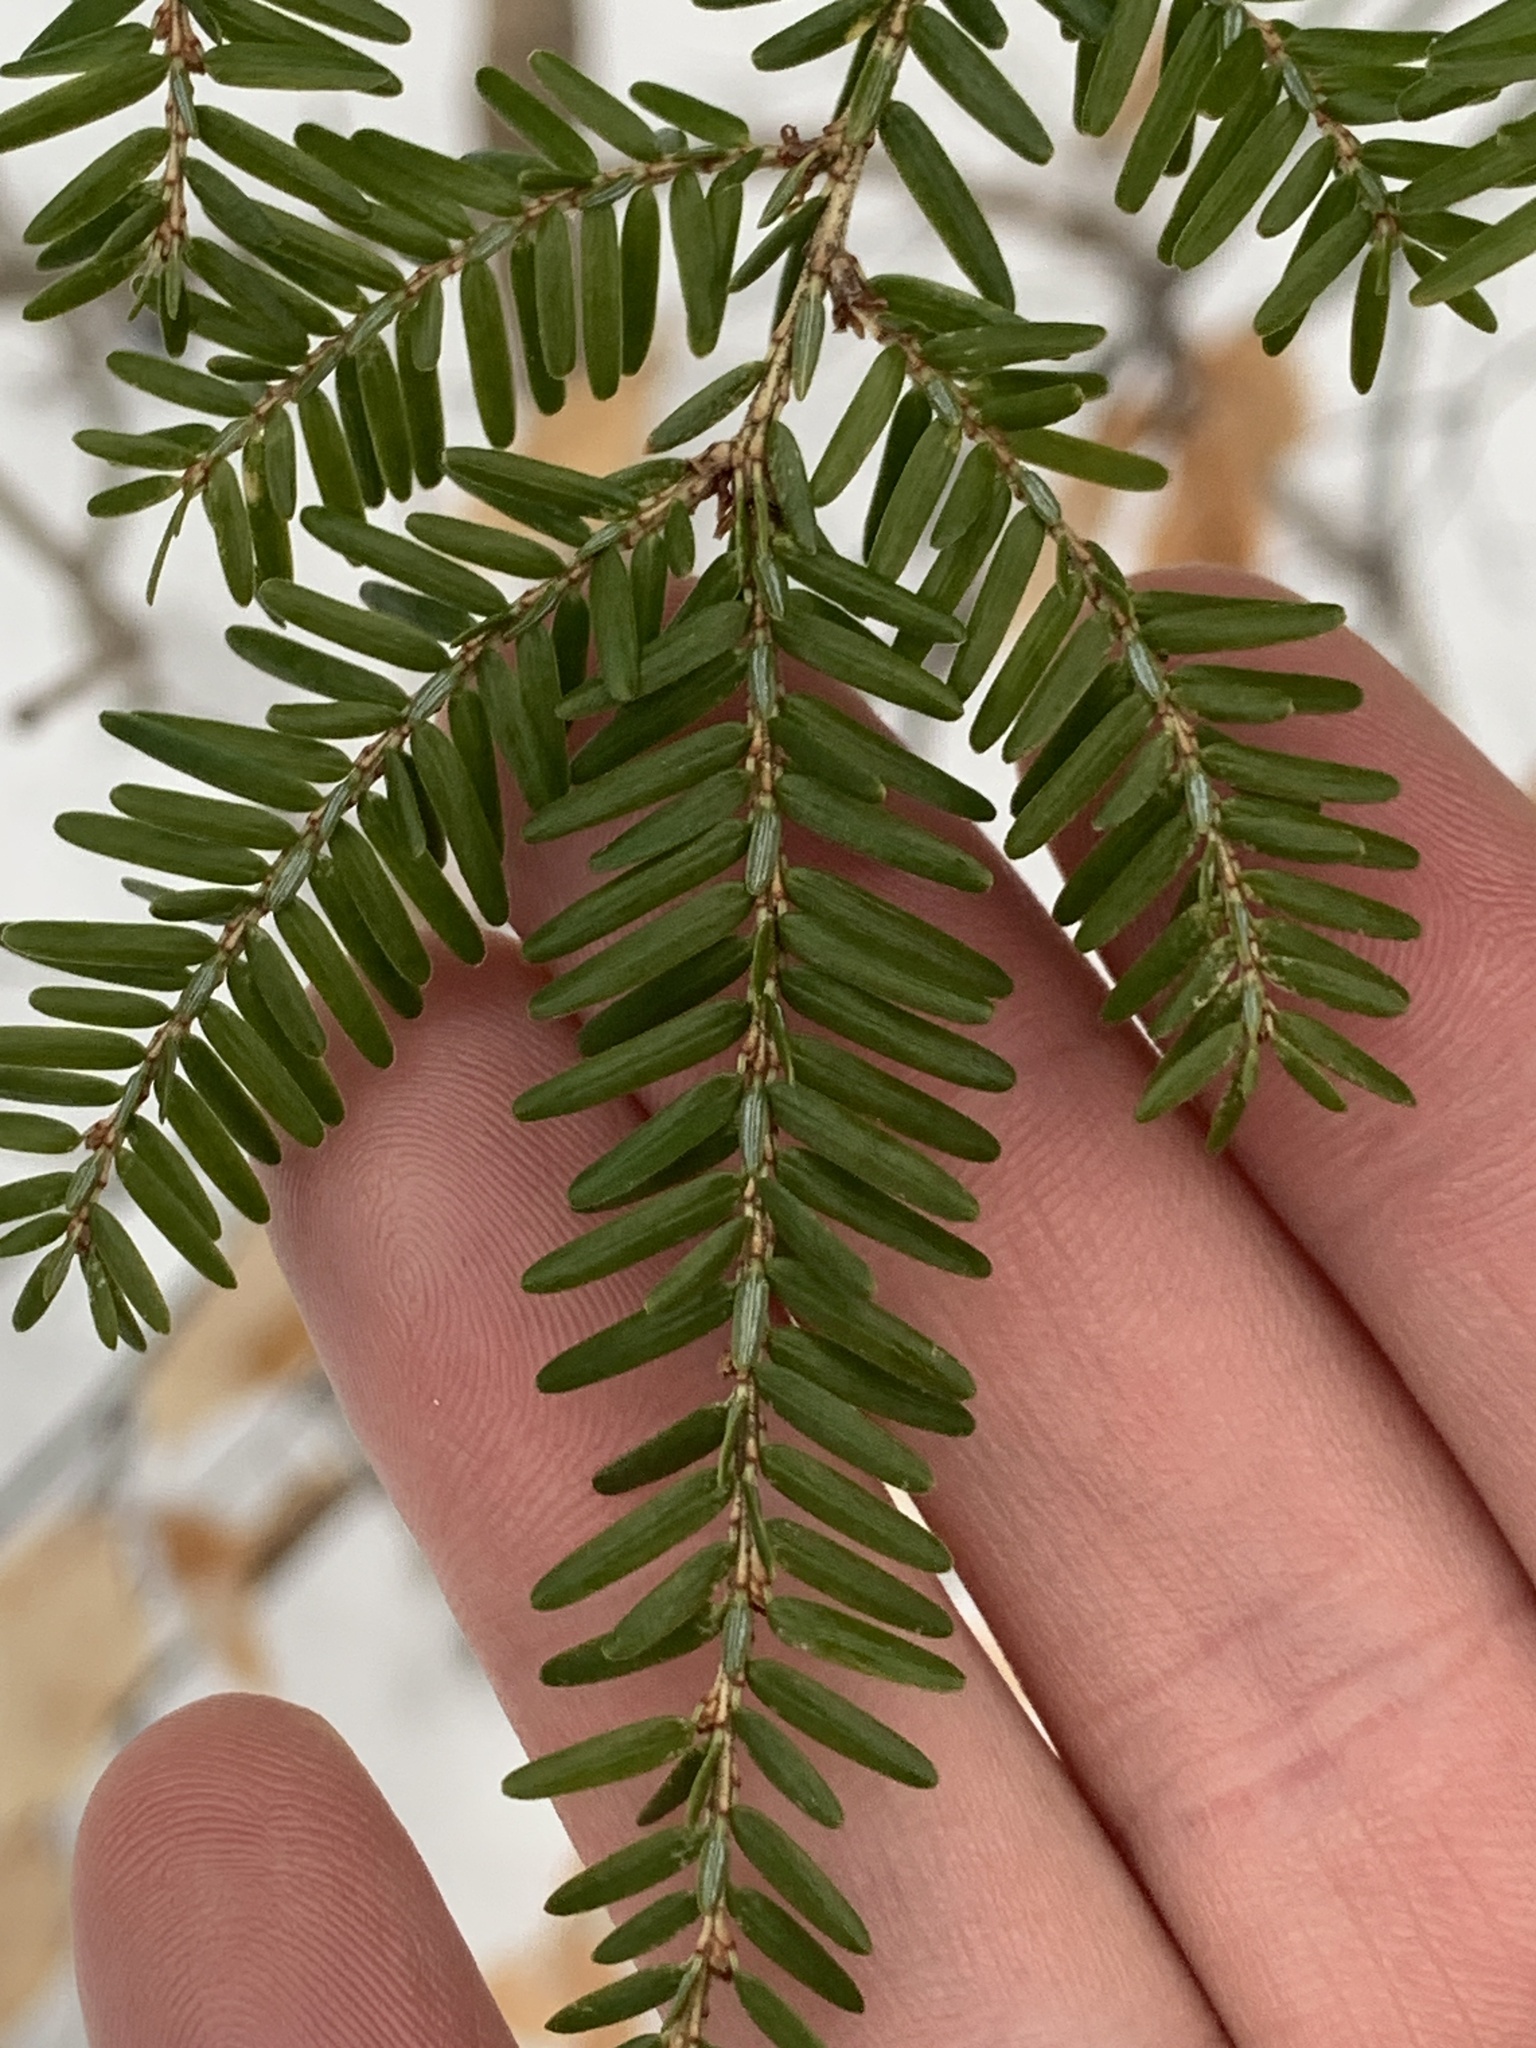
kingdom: Plantae
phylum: Tracheophyta
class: Pinopsida
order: Pinales
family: Pinaceae
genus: Tsuga
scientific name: Tsuga canadensis
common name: Eastern hemlock
